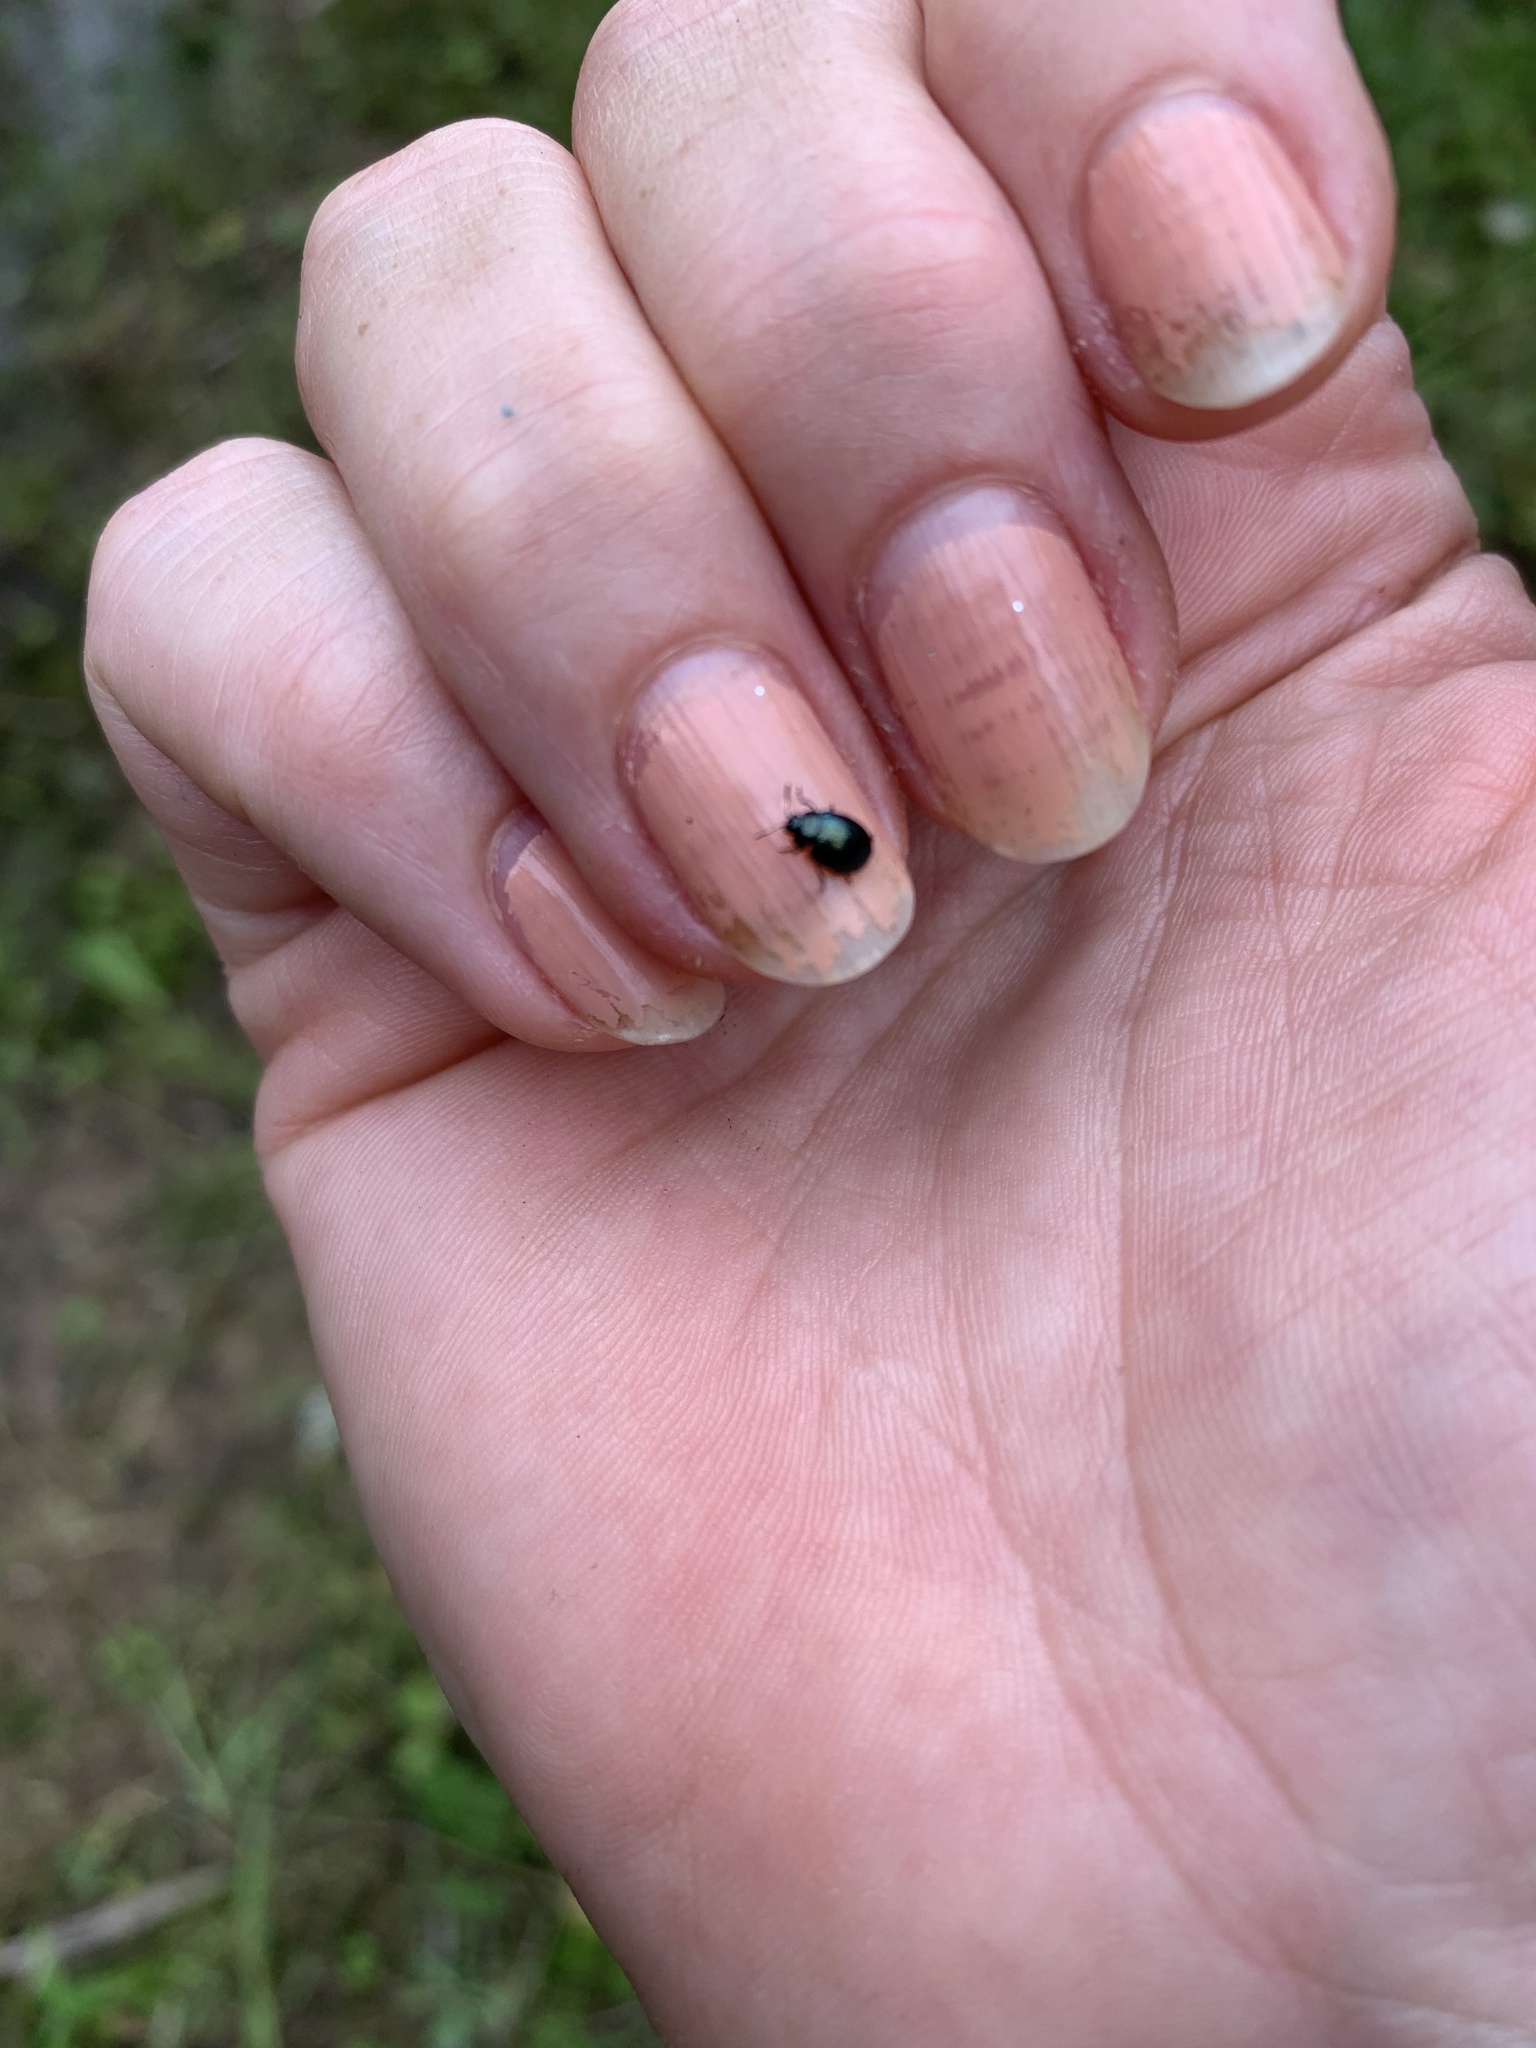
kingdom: Animalia
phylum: Arthropoda
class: Insecta
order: Coleoptera
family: Chrysomelidae
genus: Plagiodera
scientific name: Plagiodera versicolora
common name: Imported willow leaf beetle
